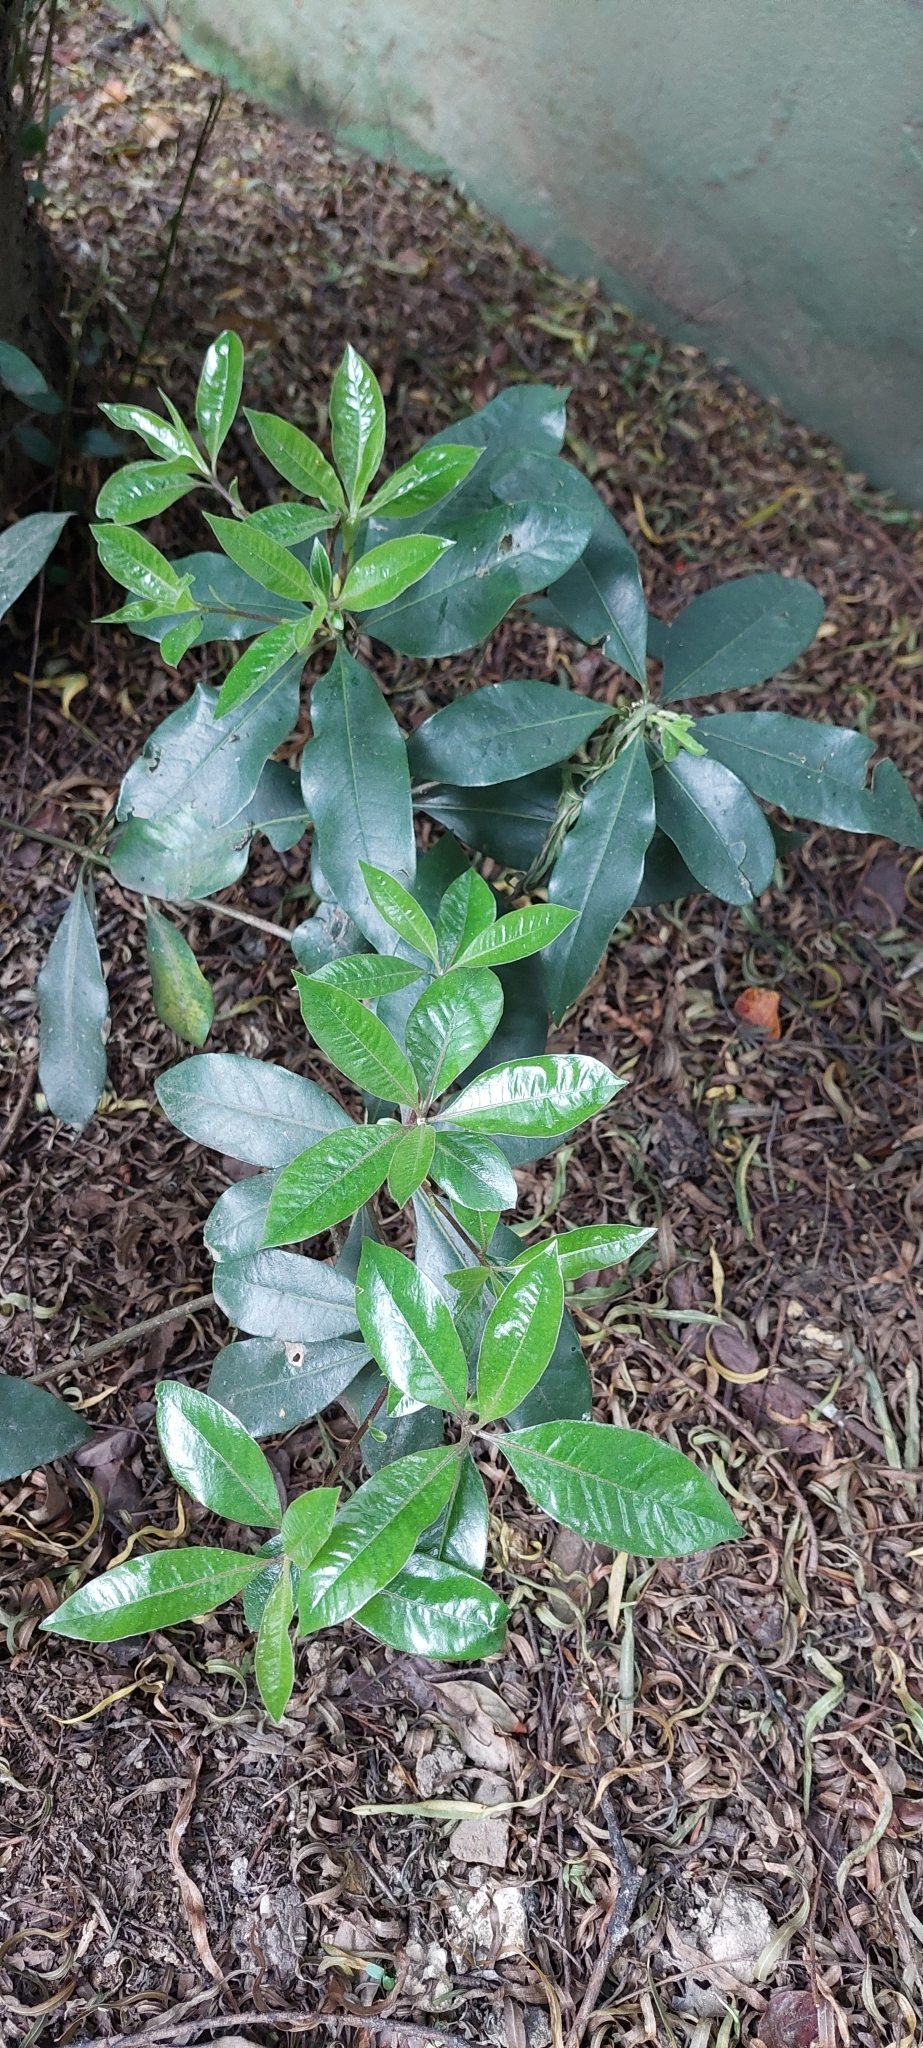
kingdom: Plantae
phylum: Tracheophyta
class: Magnoliopsida
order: Apiales
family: Pittosporaceae
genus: Pittosporum
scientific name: Pittosporum undulatum
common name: Australian cheesewood
